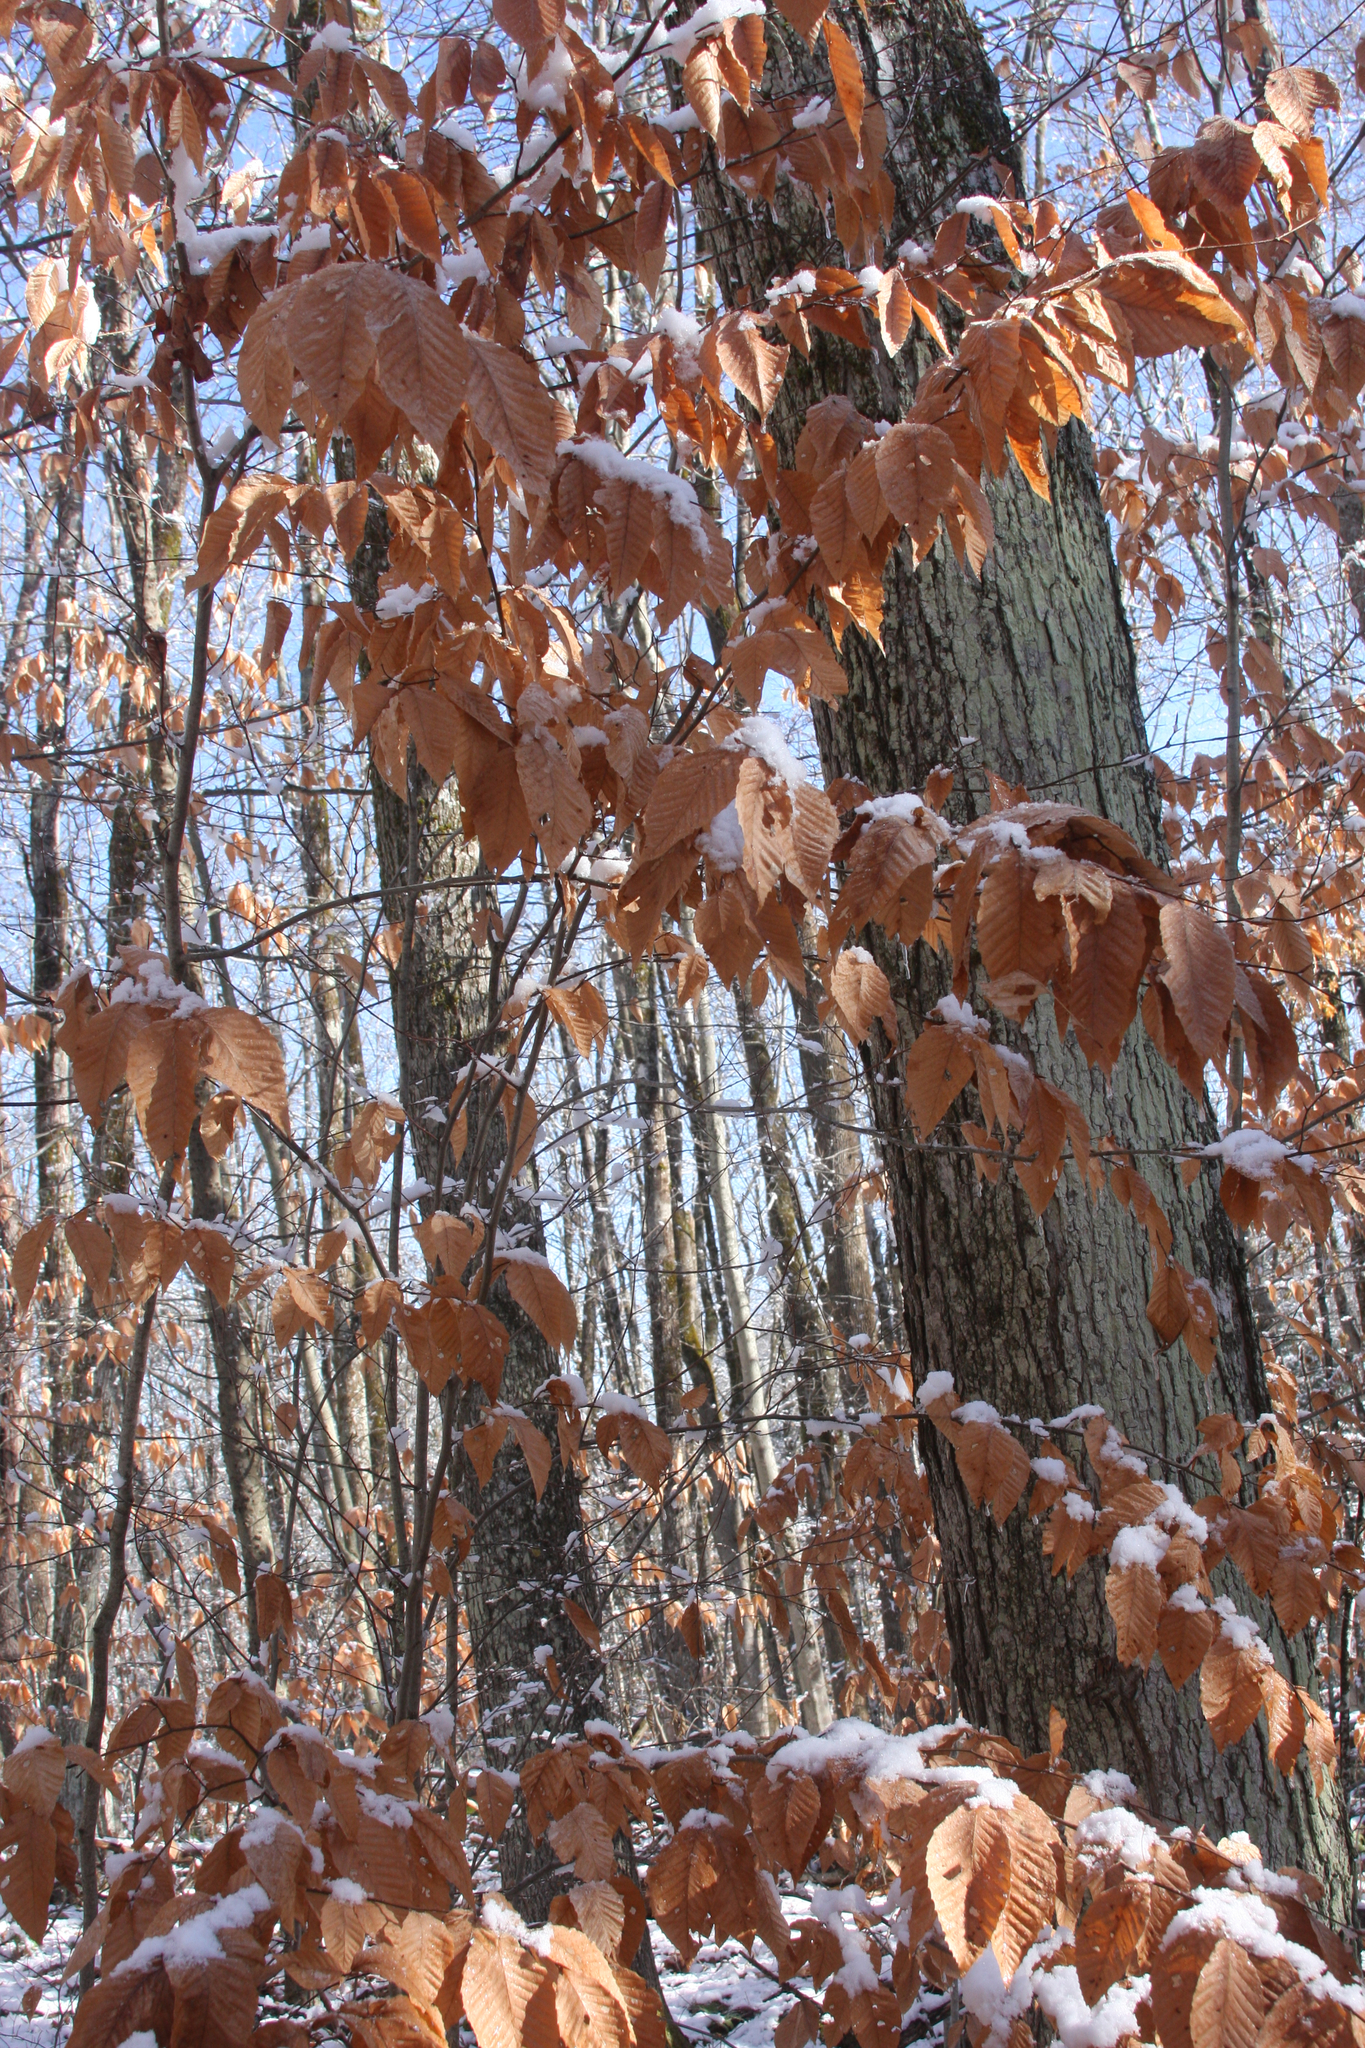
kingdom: Plantae
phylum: Tracheophyta
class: Magnoliopsida
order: Fagales
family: Fagaceae
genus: Fagus
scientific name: Fagus grandifolia
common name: American beech
